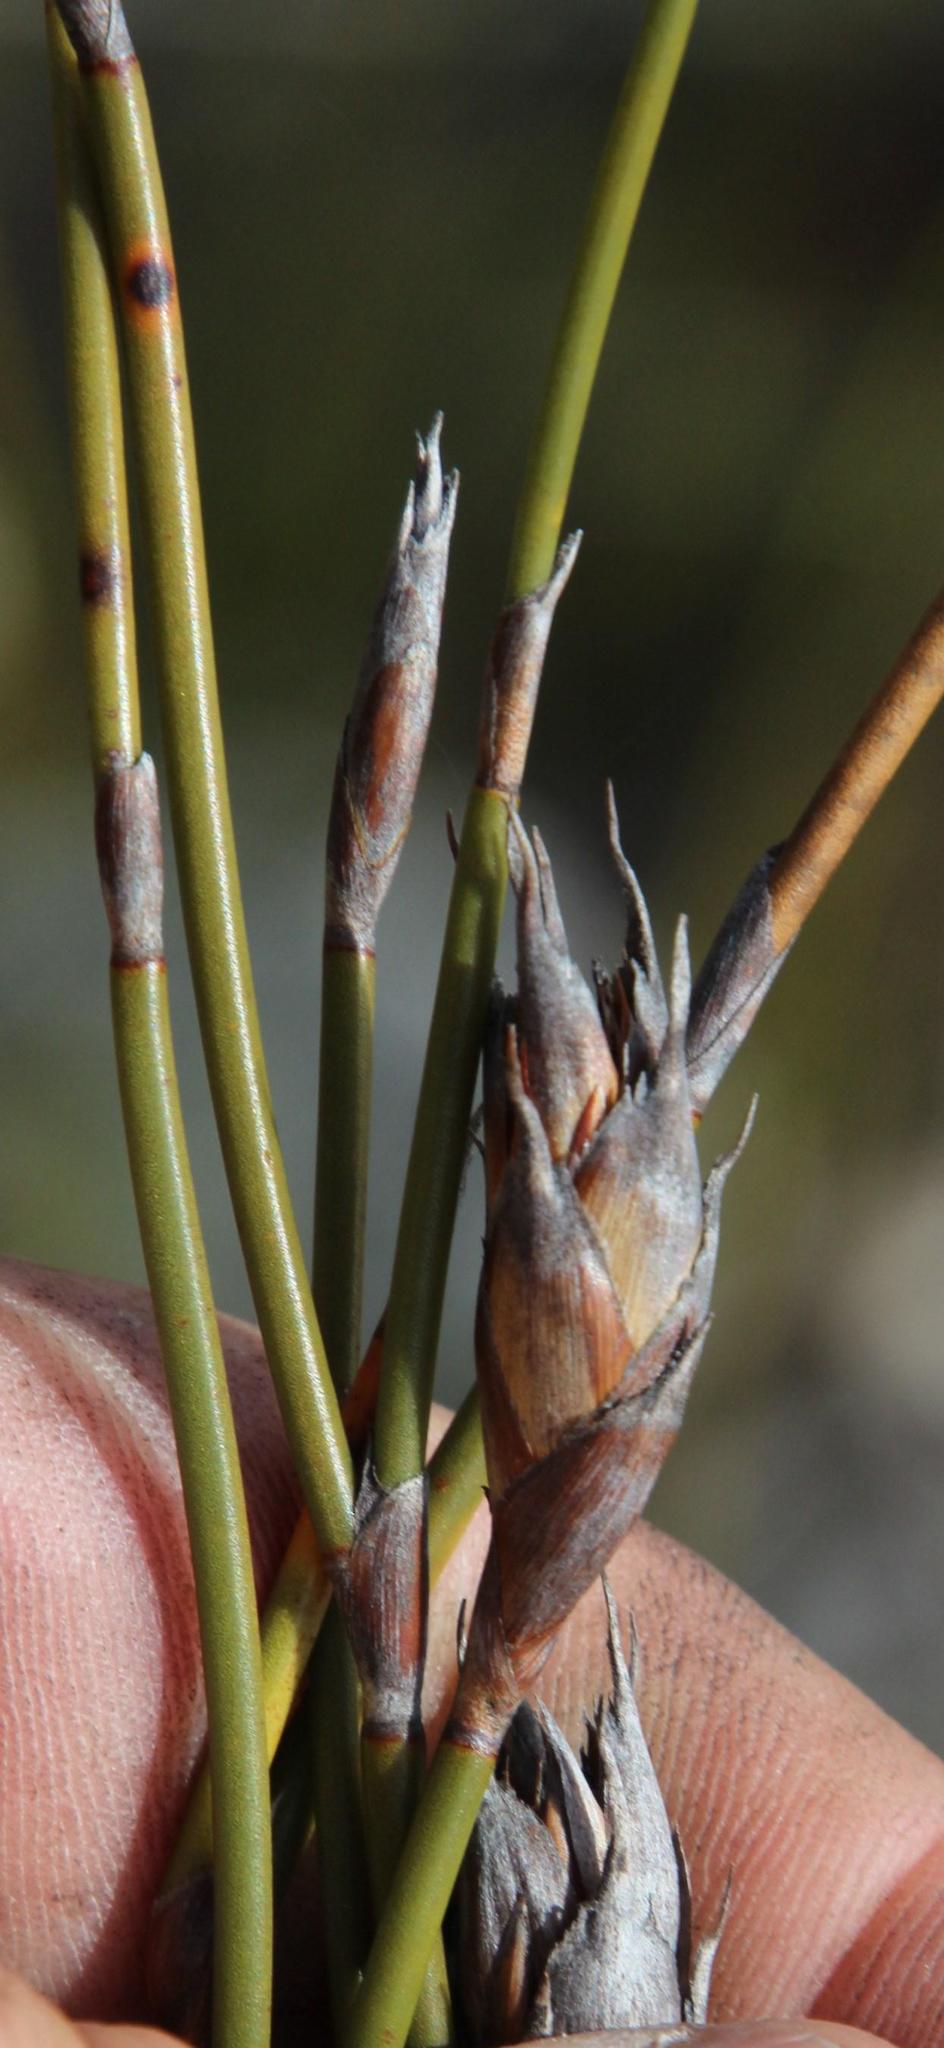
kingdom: Plantae
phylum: Tracheophyta
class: Liliopsida
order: Poales
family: Restionaceae
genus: Restio
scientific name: Restio egregius
